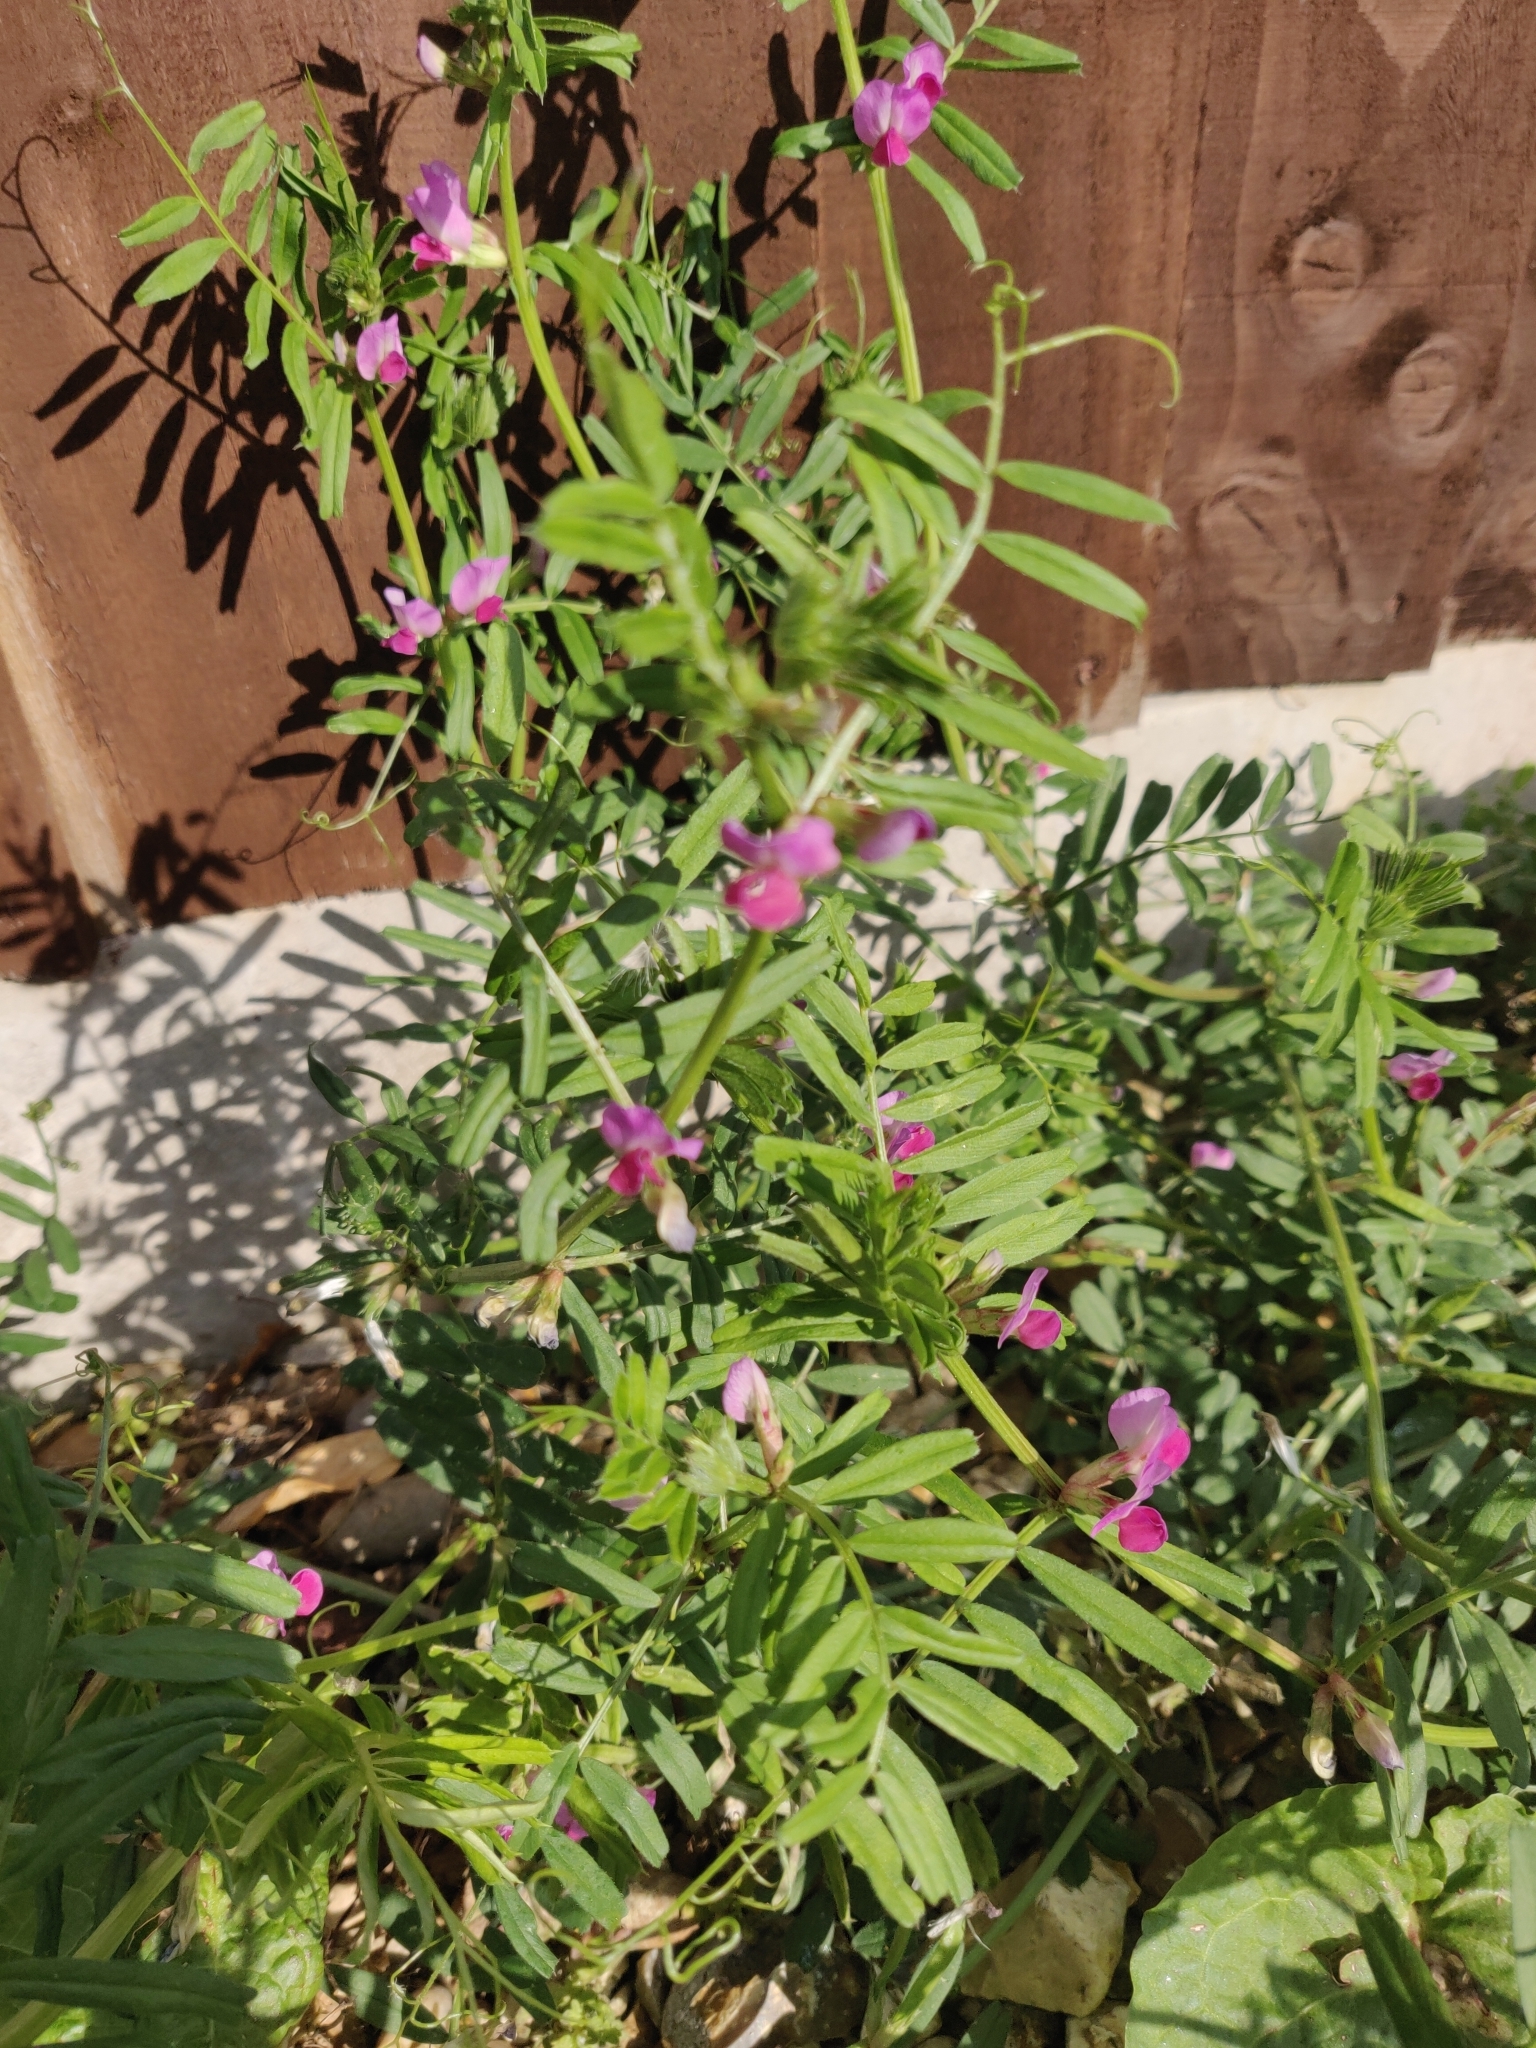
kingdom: Plantae
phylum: Tracheophyta
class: Magnoliopsida
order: Fabales
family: Fabaceae
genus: Vicia
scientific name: Vicia sativa
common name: Garden vetch
